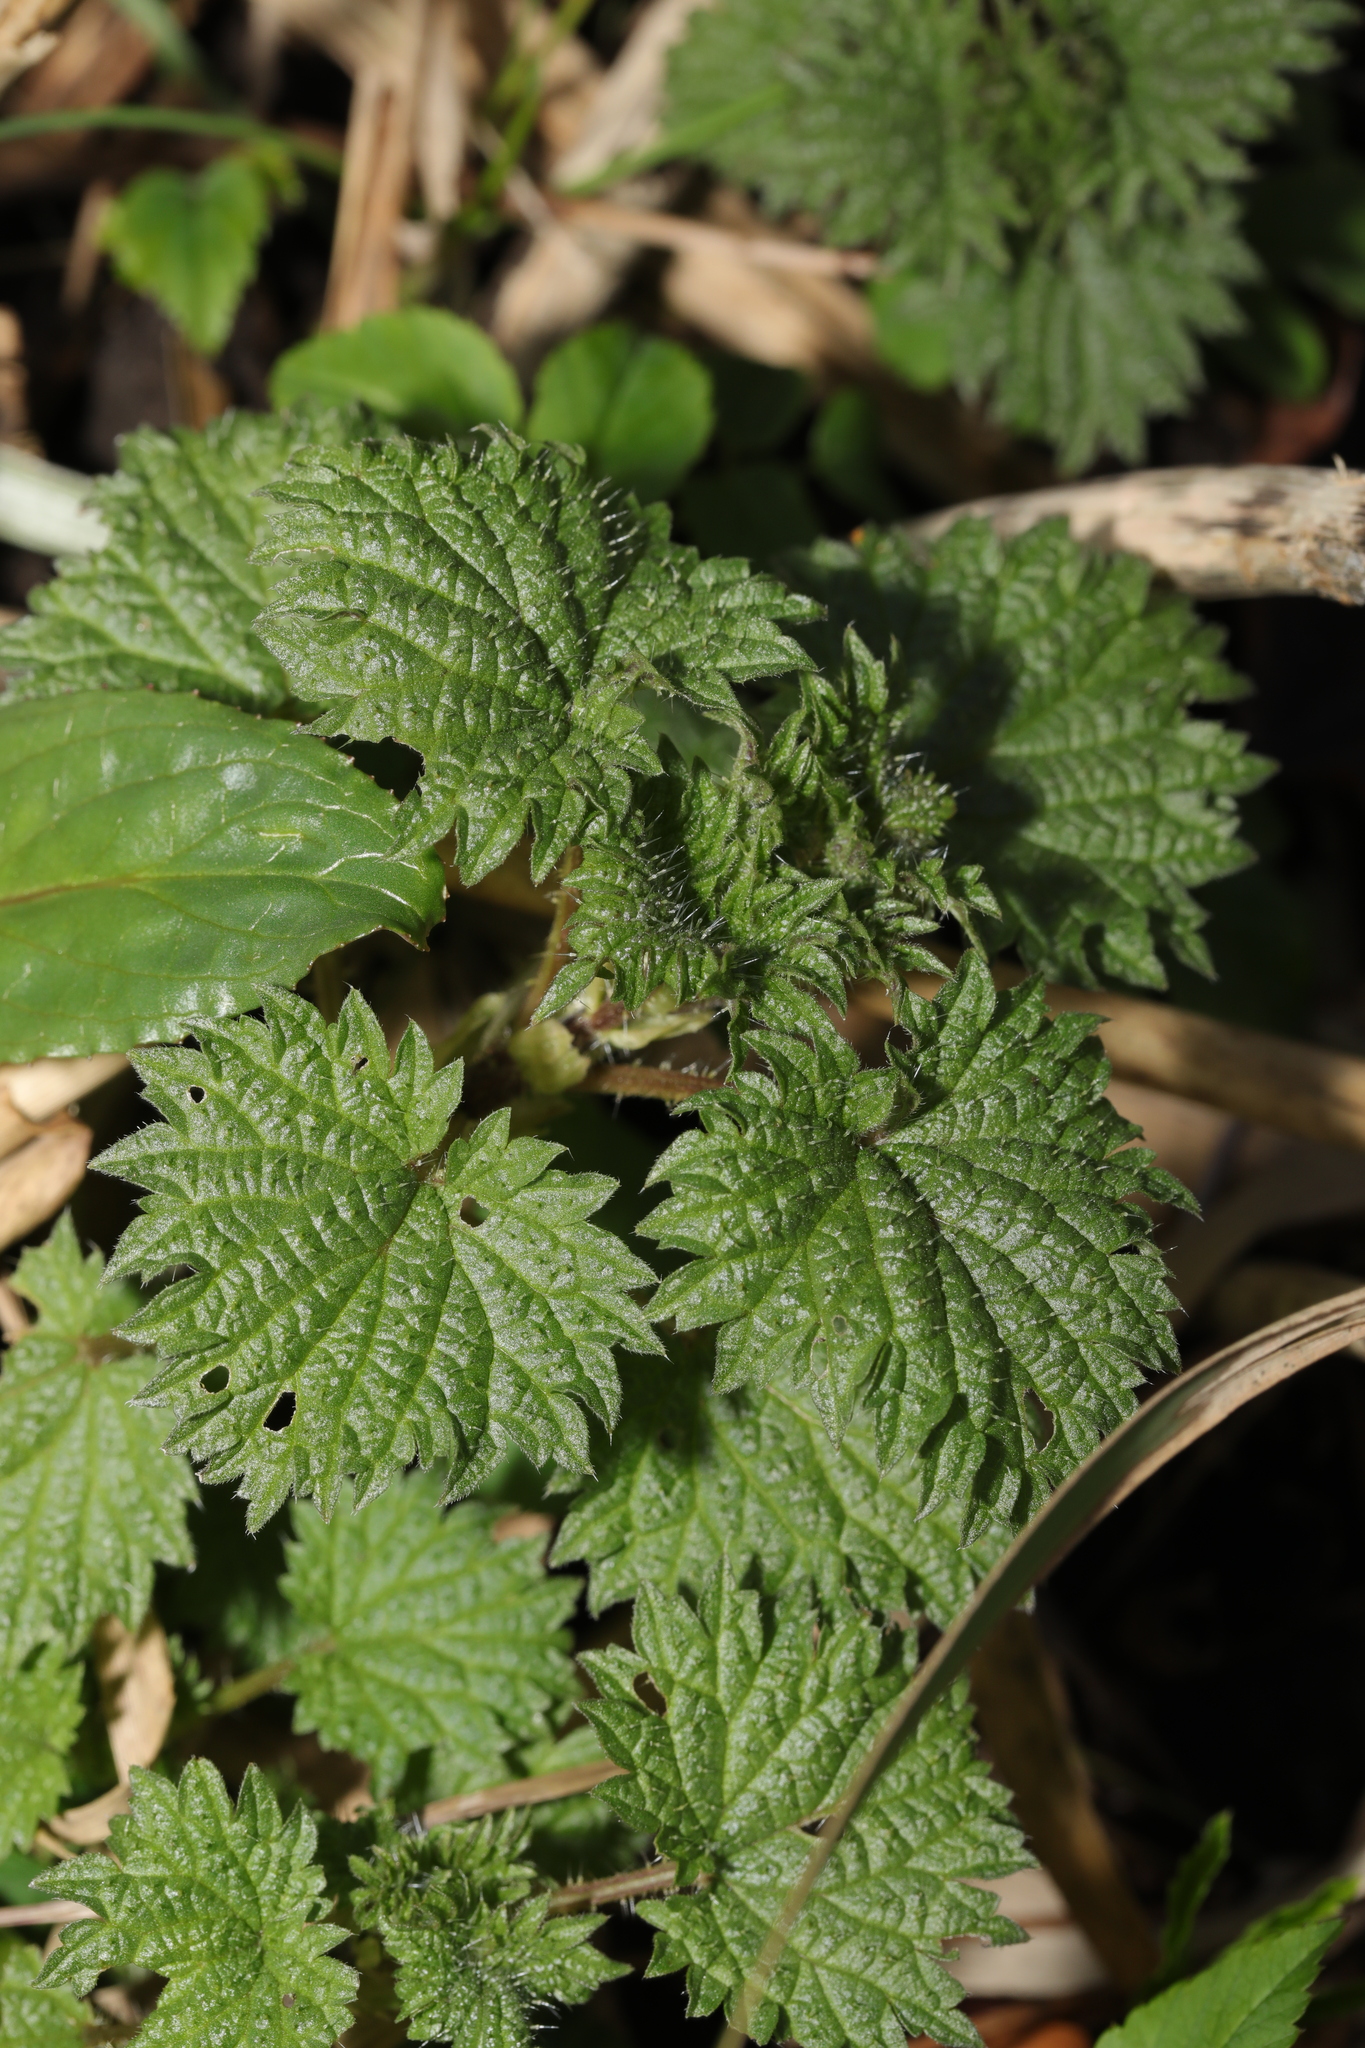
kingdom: Plantae
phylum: Tracheophyta
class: Magnoliopsida
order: Rosales
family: Urticaceae
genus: Urtica
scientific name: Urtica dioica
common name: Common nettle
